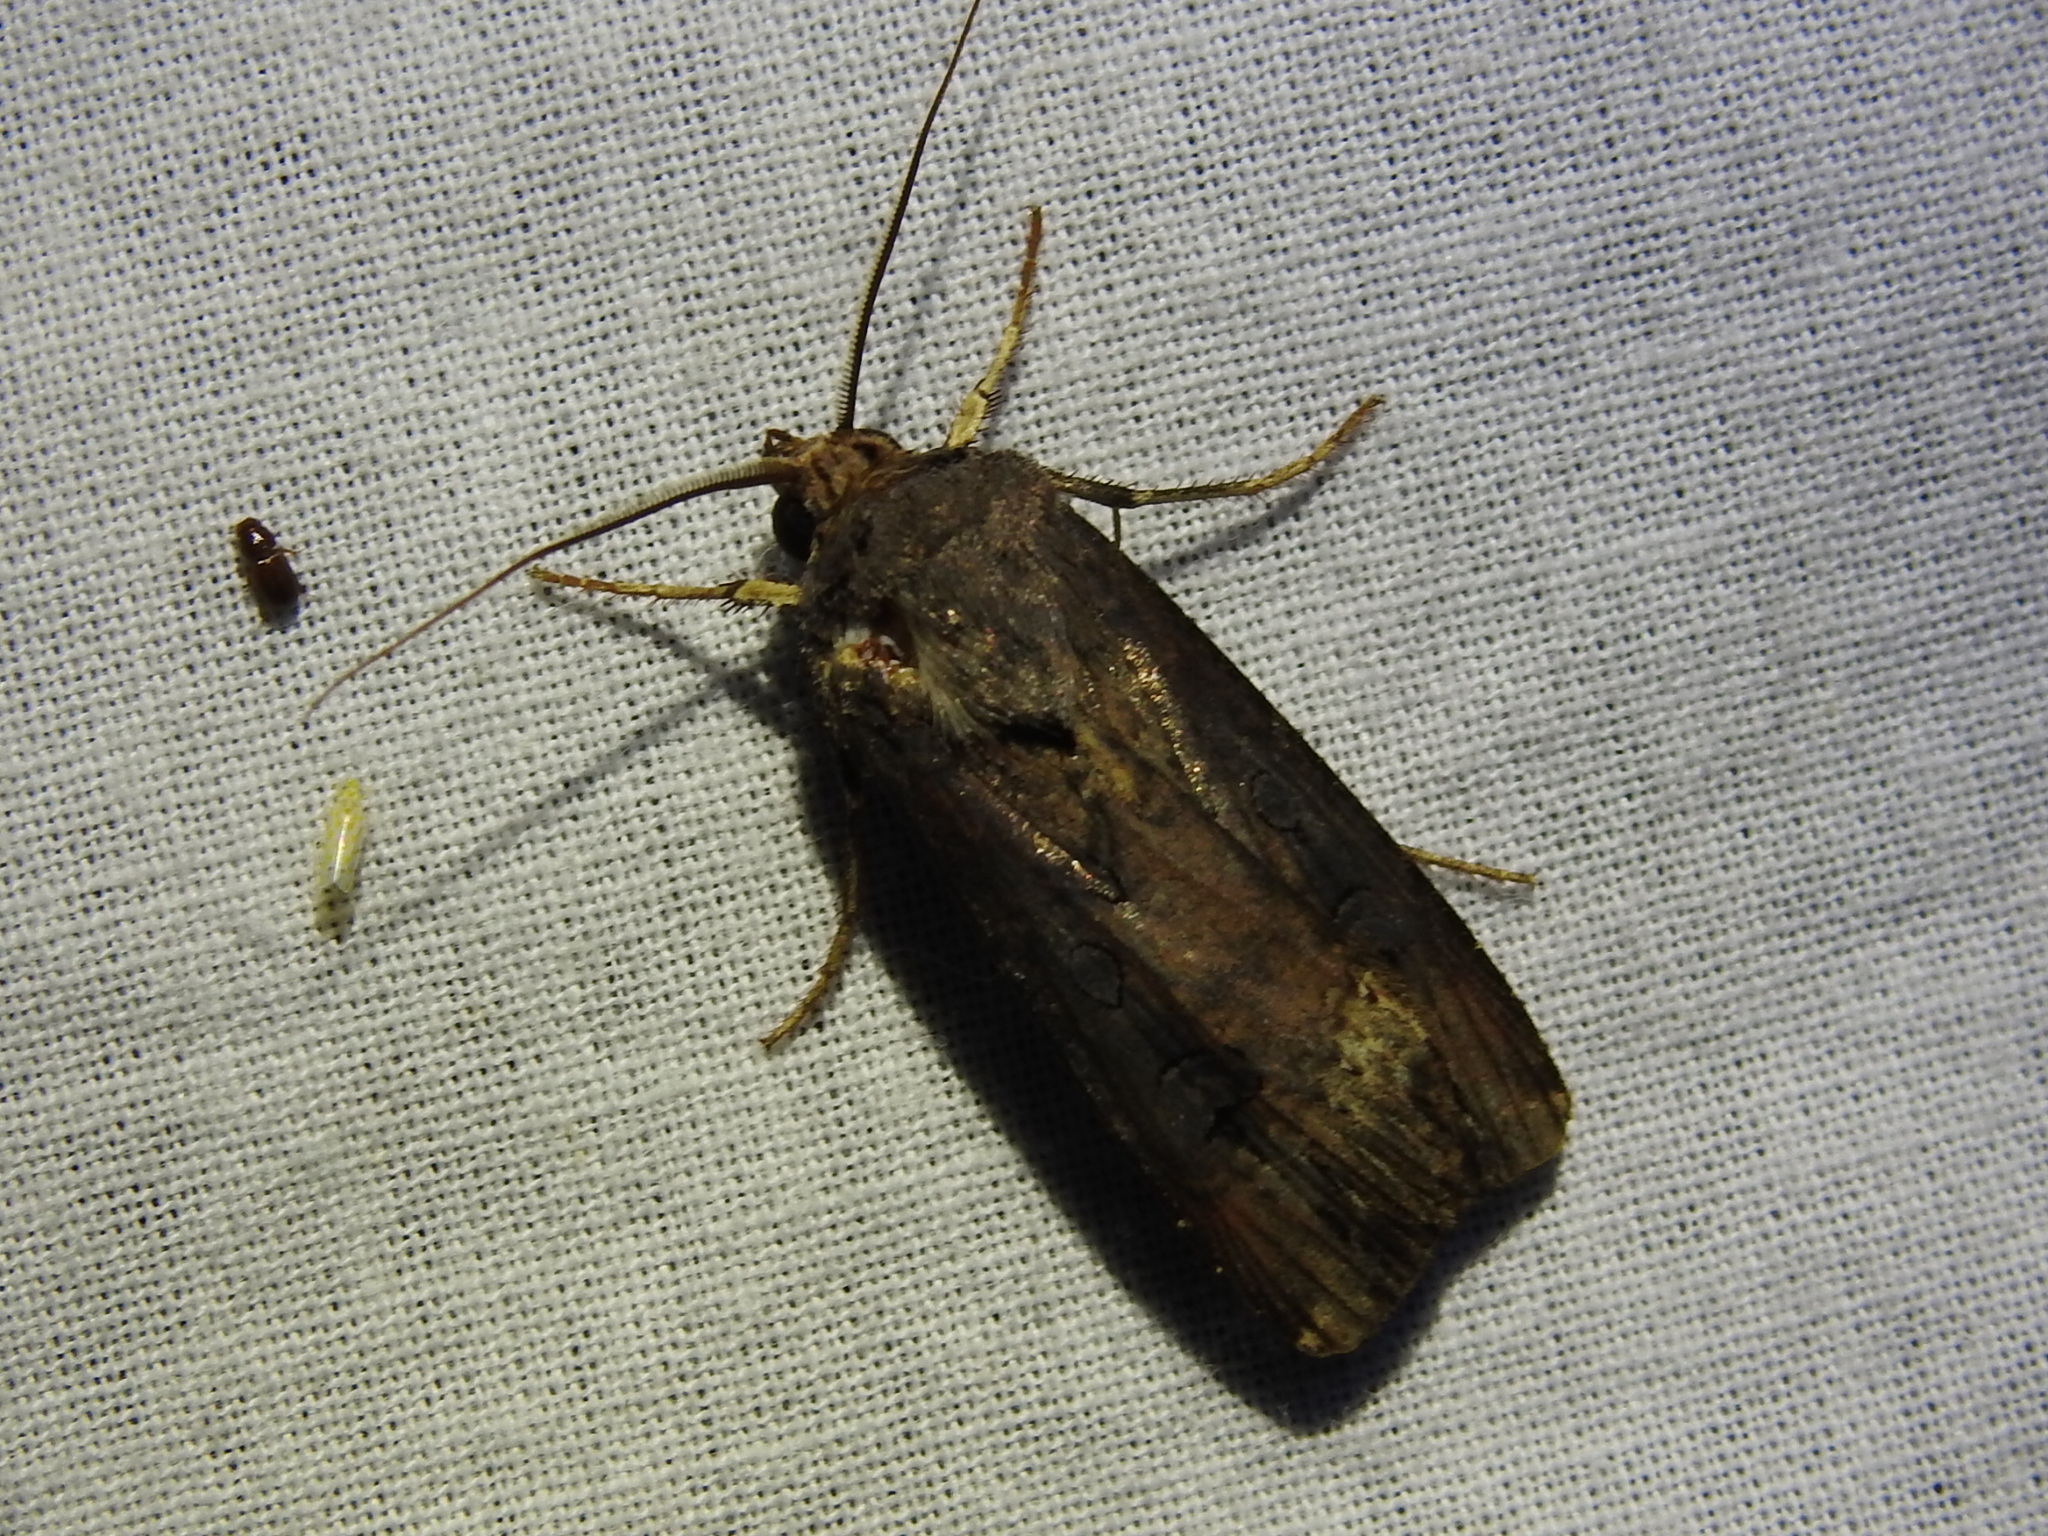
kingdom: Animalia
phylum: Arthropoda
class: Insecta
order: Lepidoptera
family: Noctuidae
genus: Agrotis
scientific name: Agrotis ipsilon
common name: Dark sword-grass
